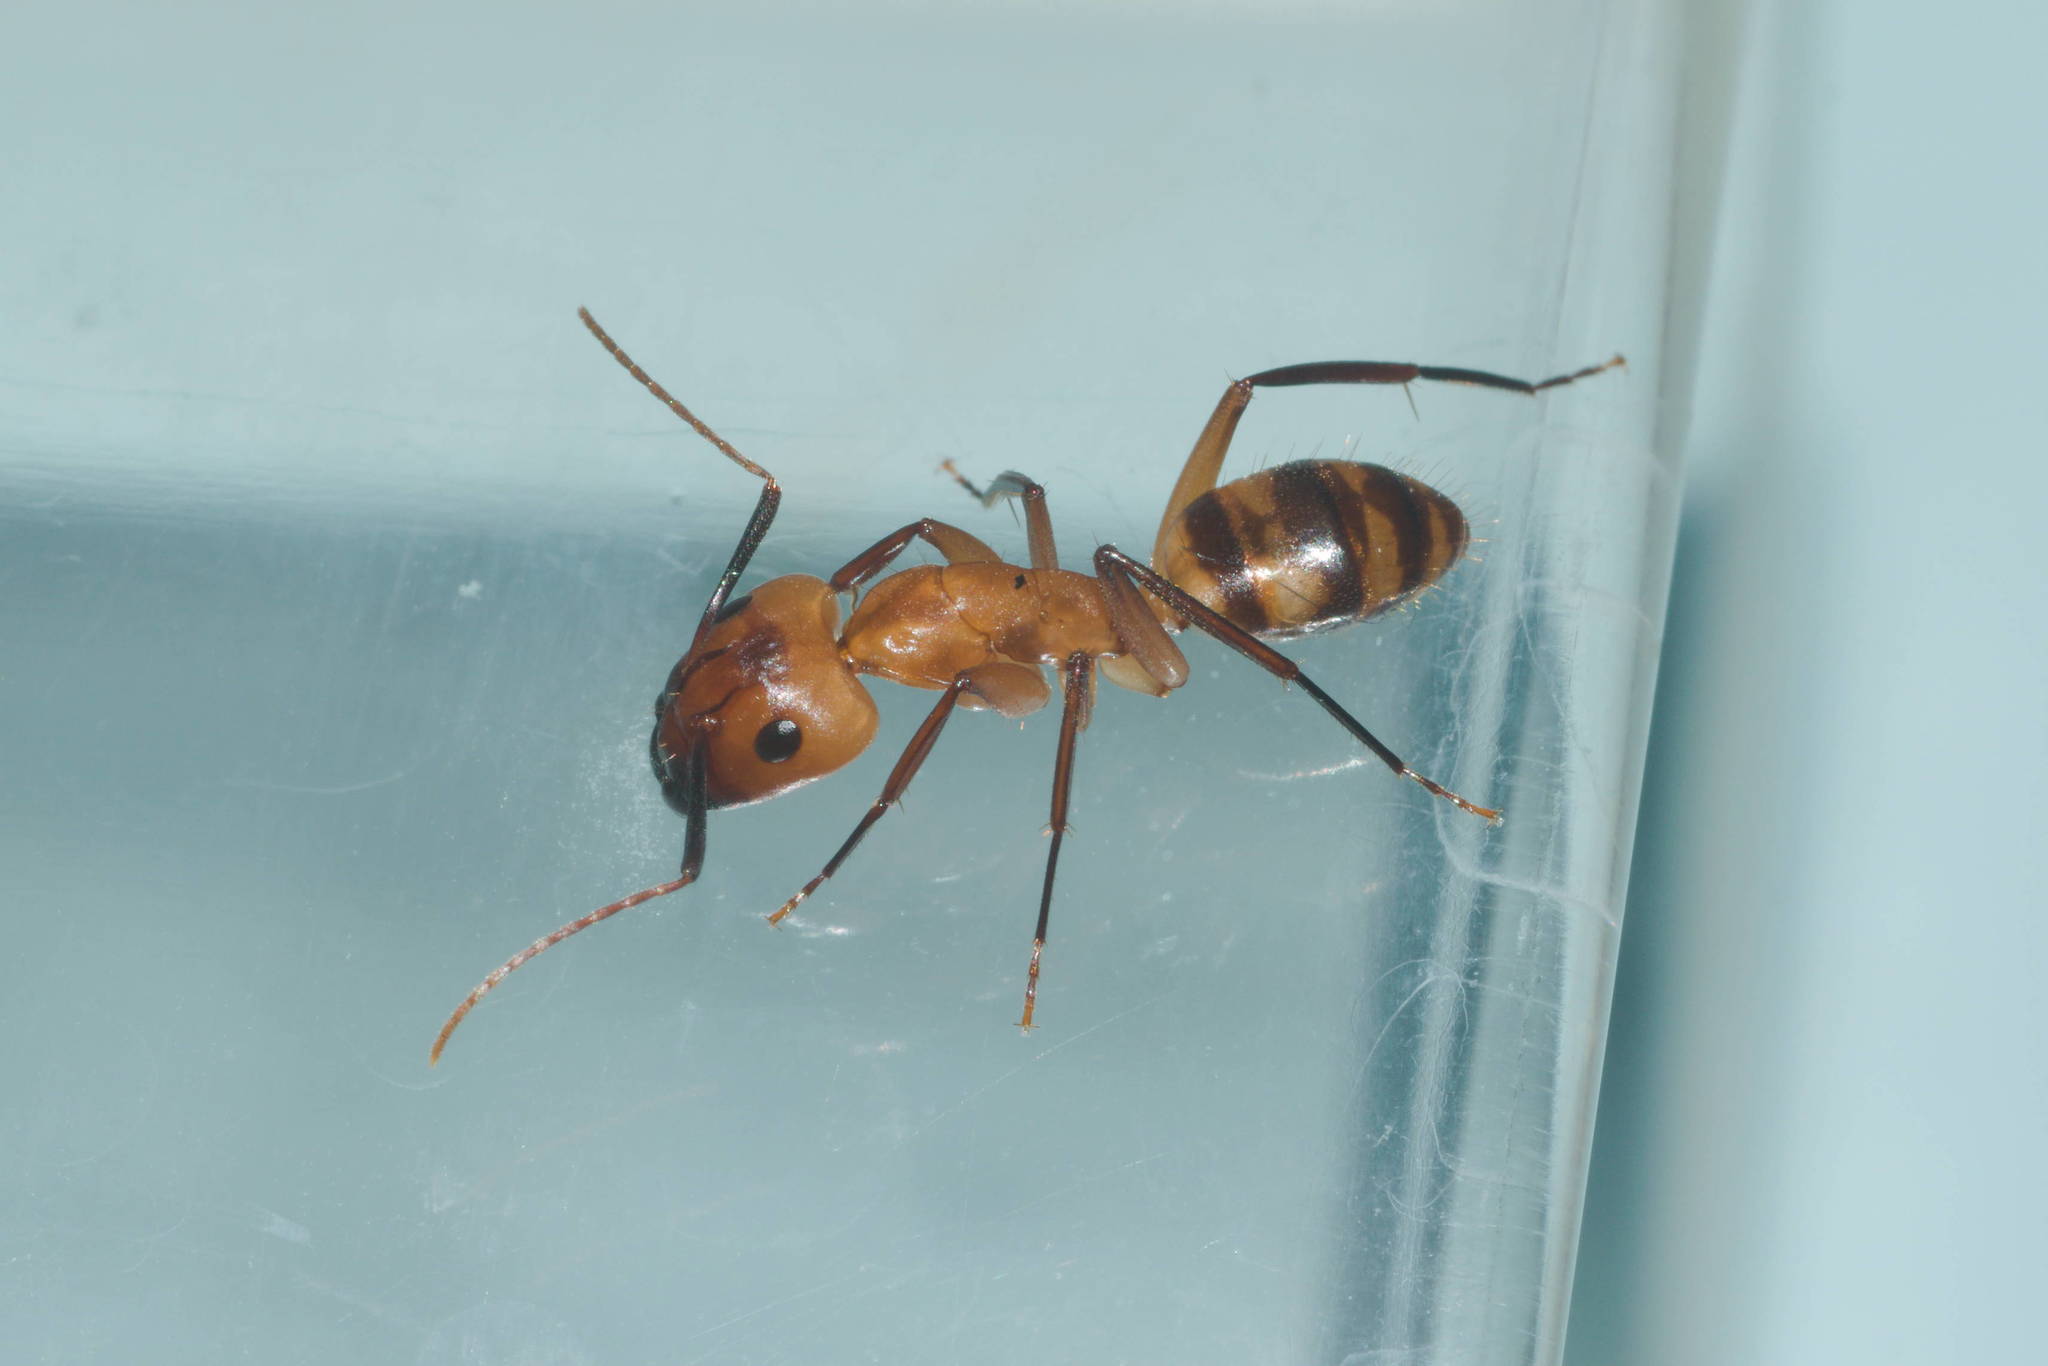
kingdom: Animalia
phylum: Arthropoda
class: Insecta
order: Hymenoptera
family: Formicidae
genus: Camponotus
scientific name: Camponotus variegatus
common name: Hawaiian carpenter ant
